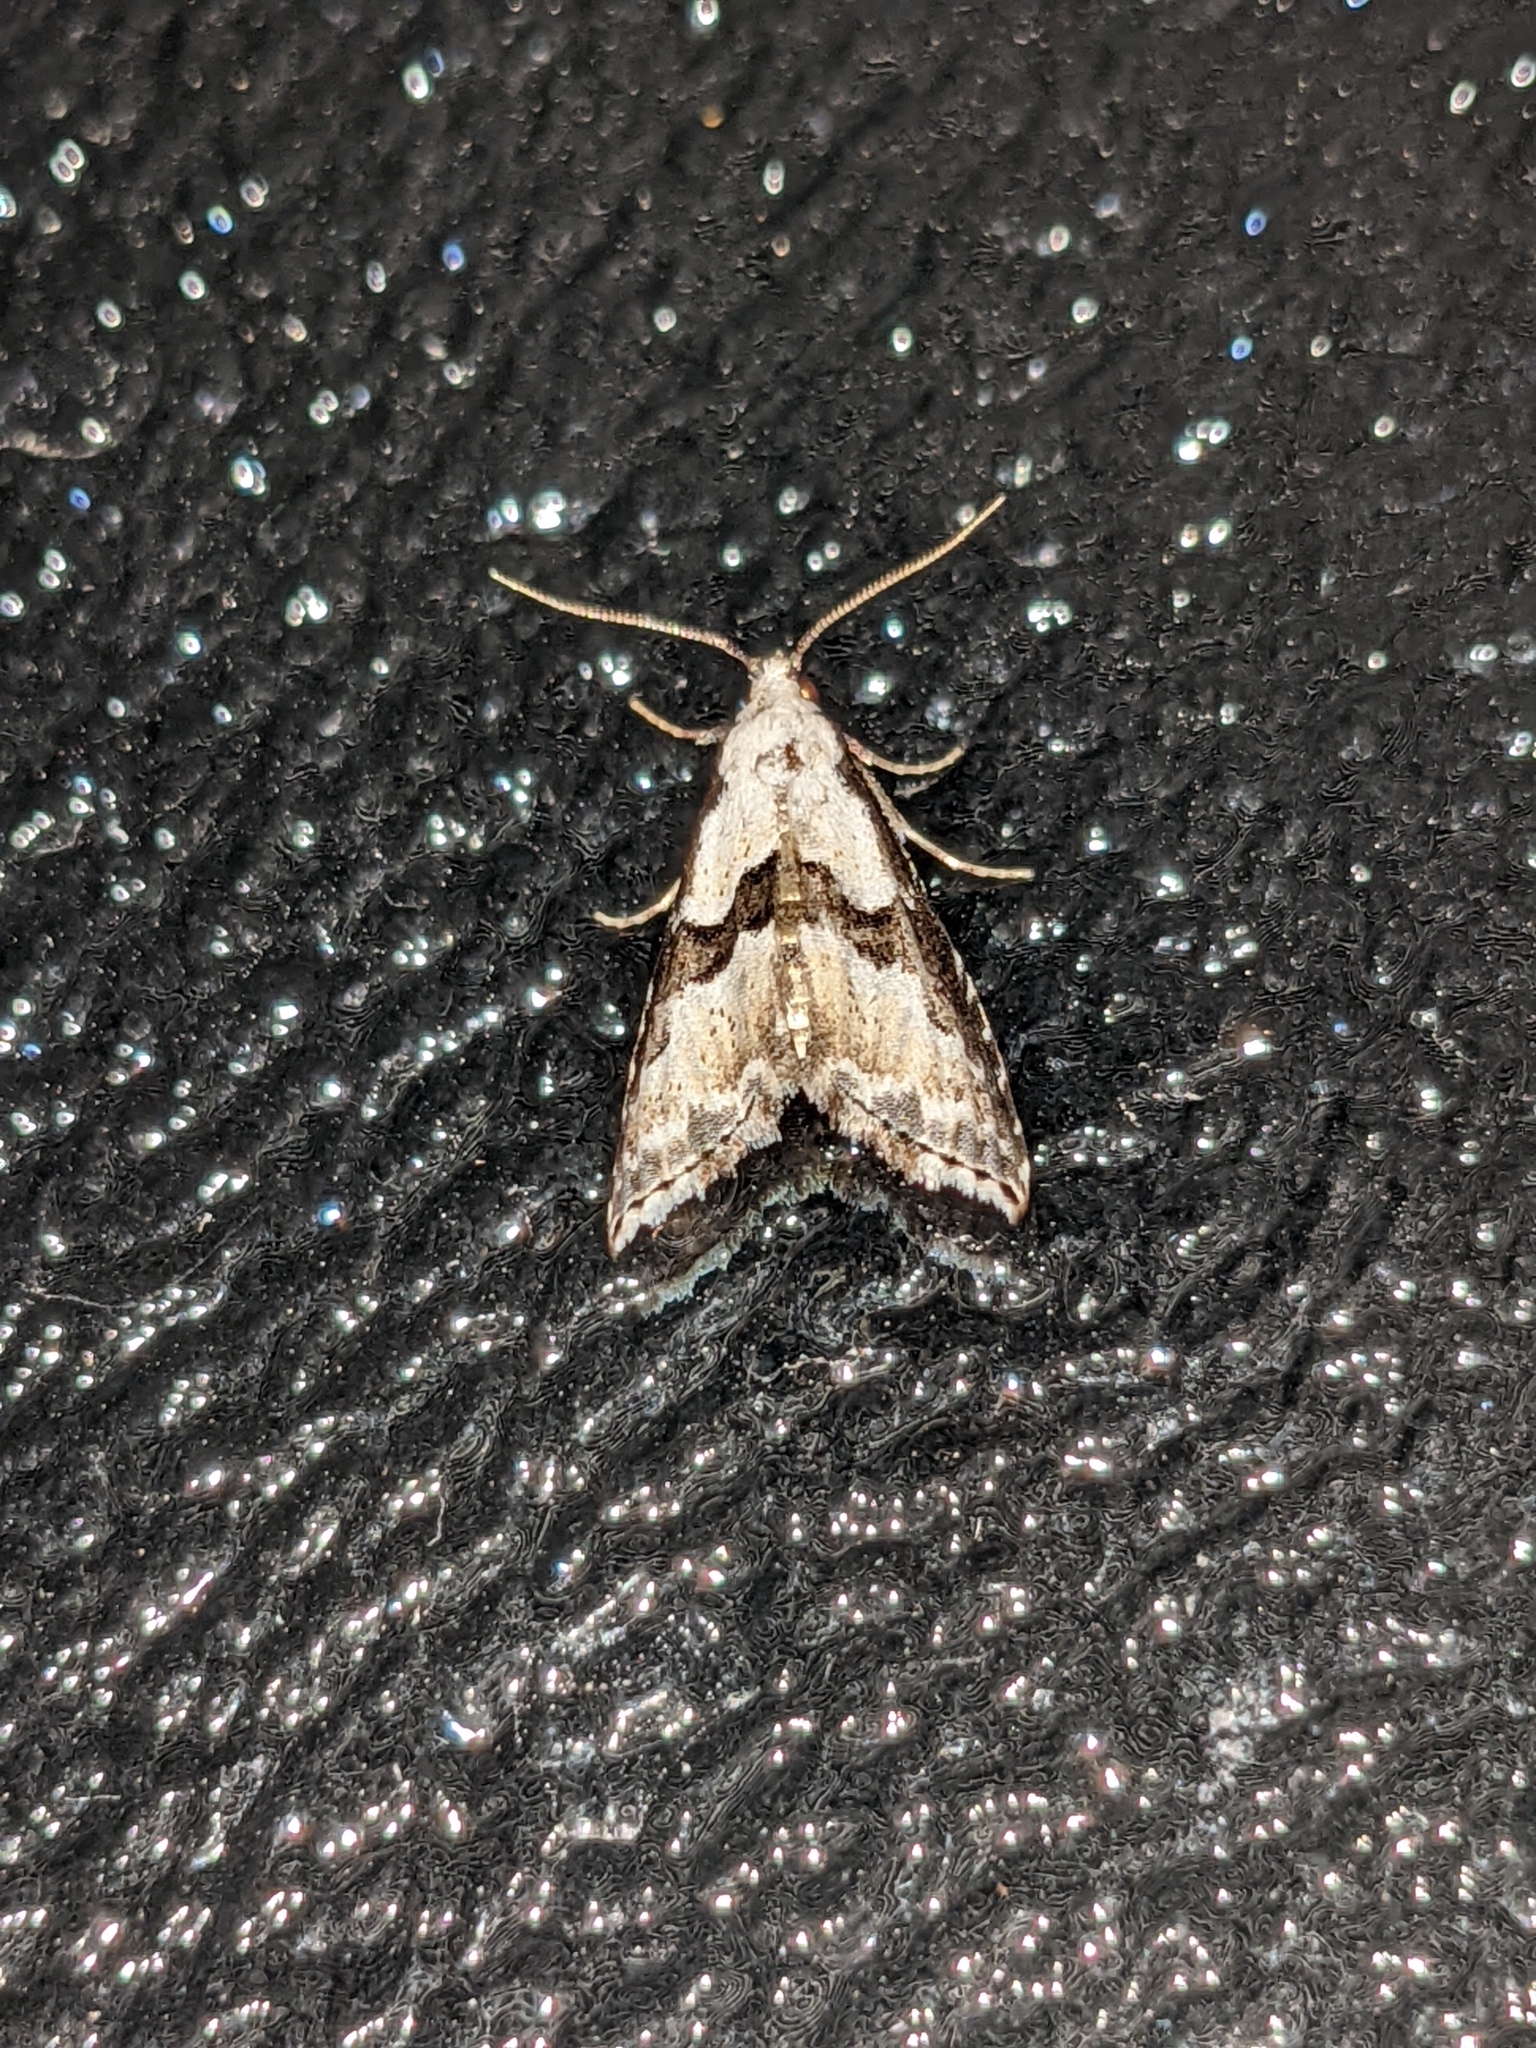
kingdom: Animalia
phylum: Arthropoda
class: Insecta
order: Lepidoptera
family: Noctuidae
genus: Nigetia
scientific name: Nigetia formosalis
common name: Thin-winged owlet
